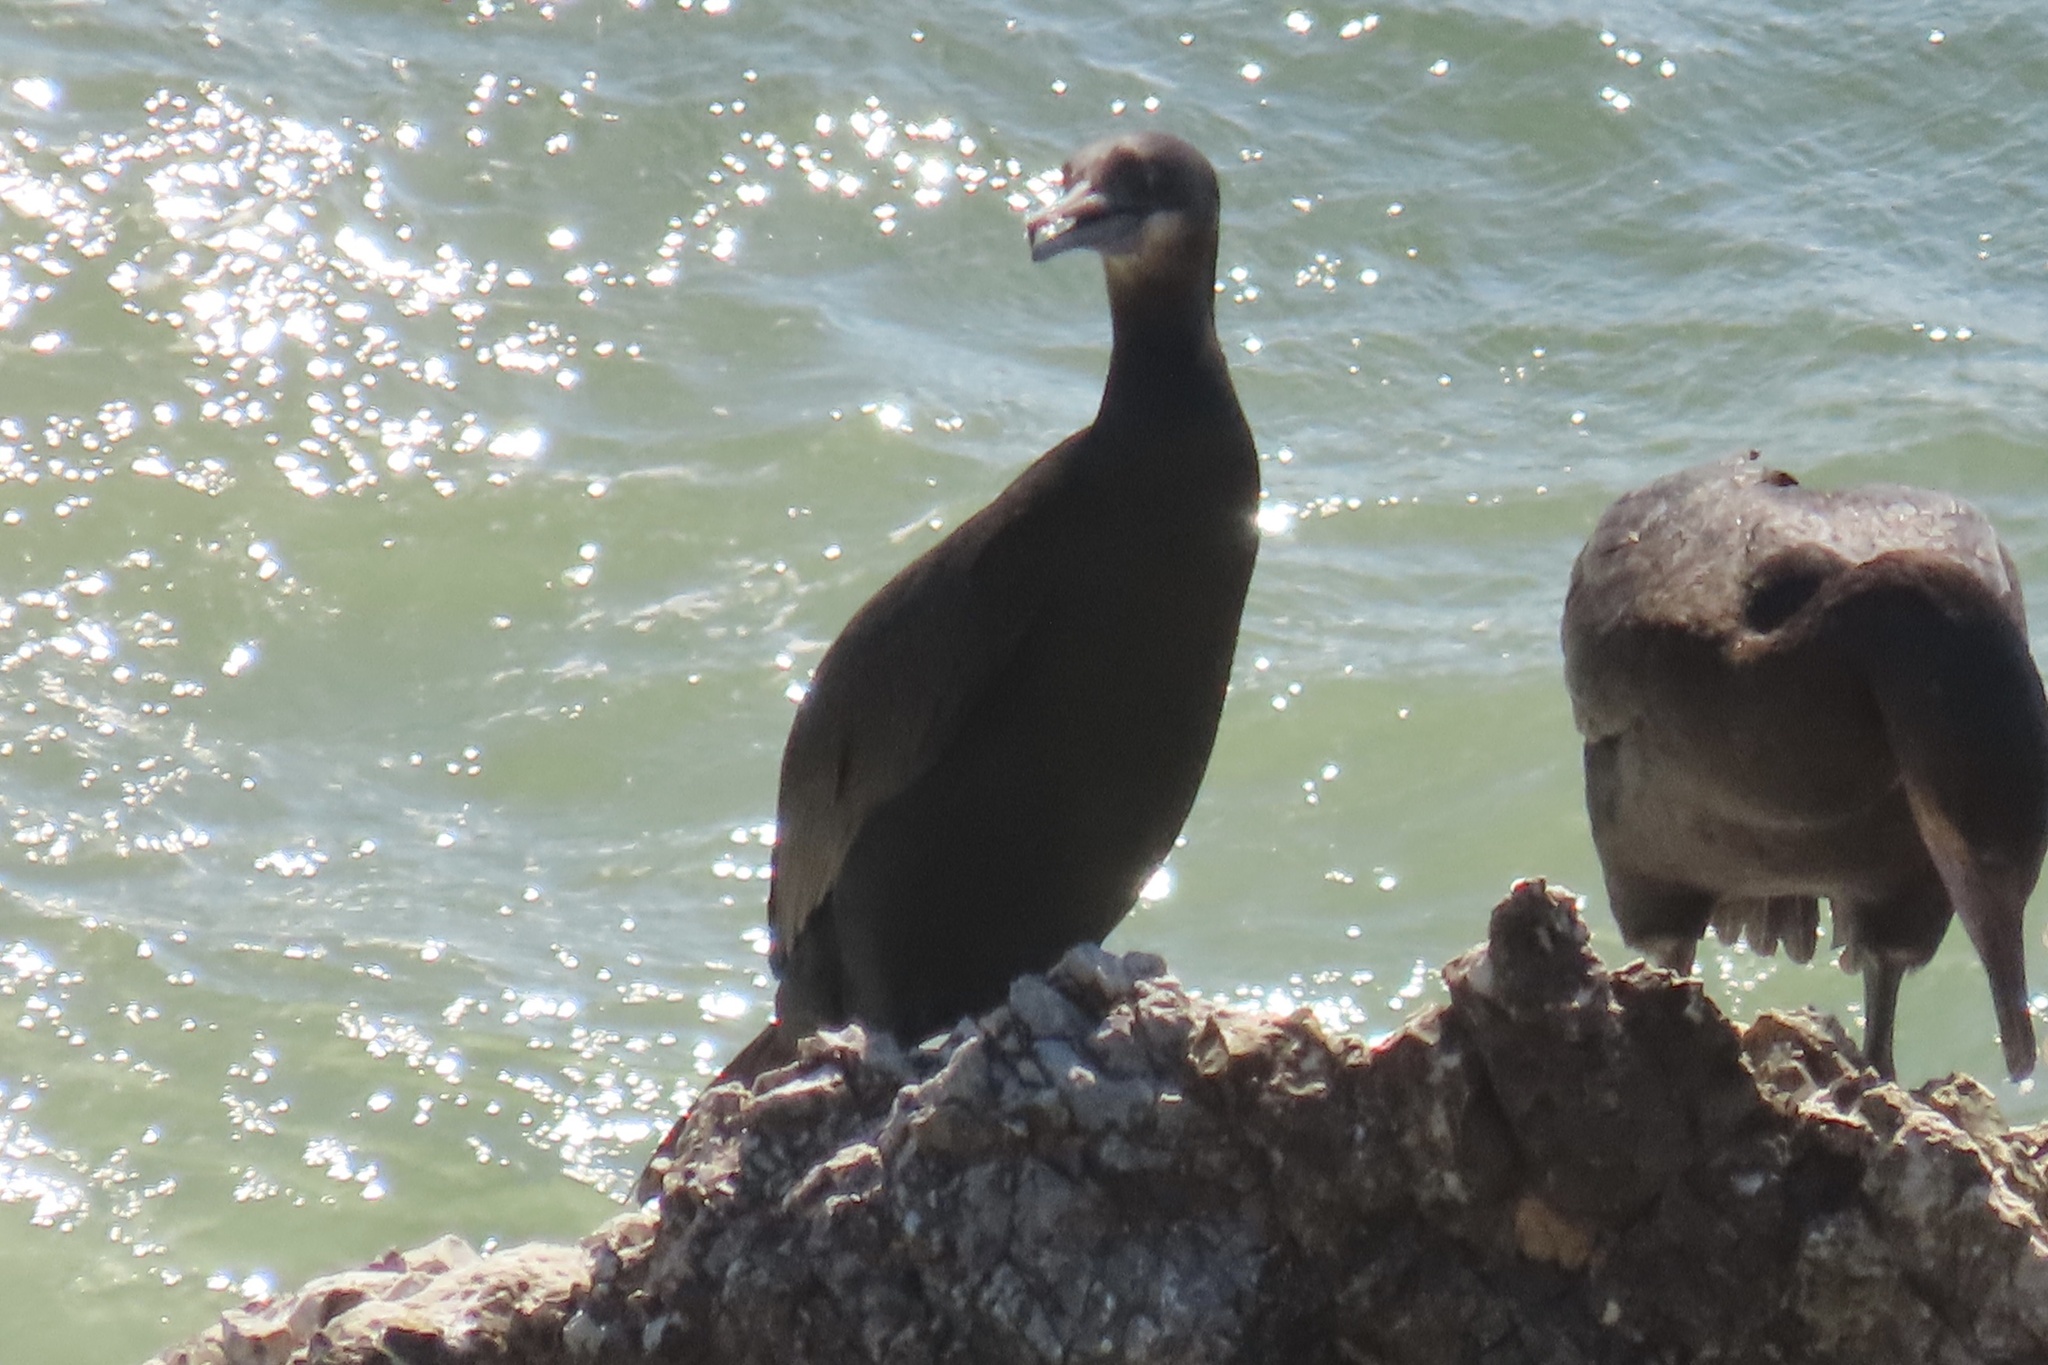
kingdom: Animalia
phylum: Chordata
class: Aves
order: Suliformes
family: Phalacrocoracidae
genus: Urile
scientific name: Urile penicillatus
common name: Brandt's cormorant
